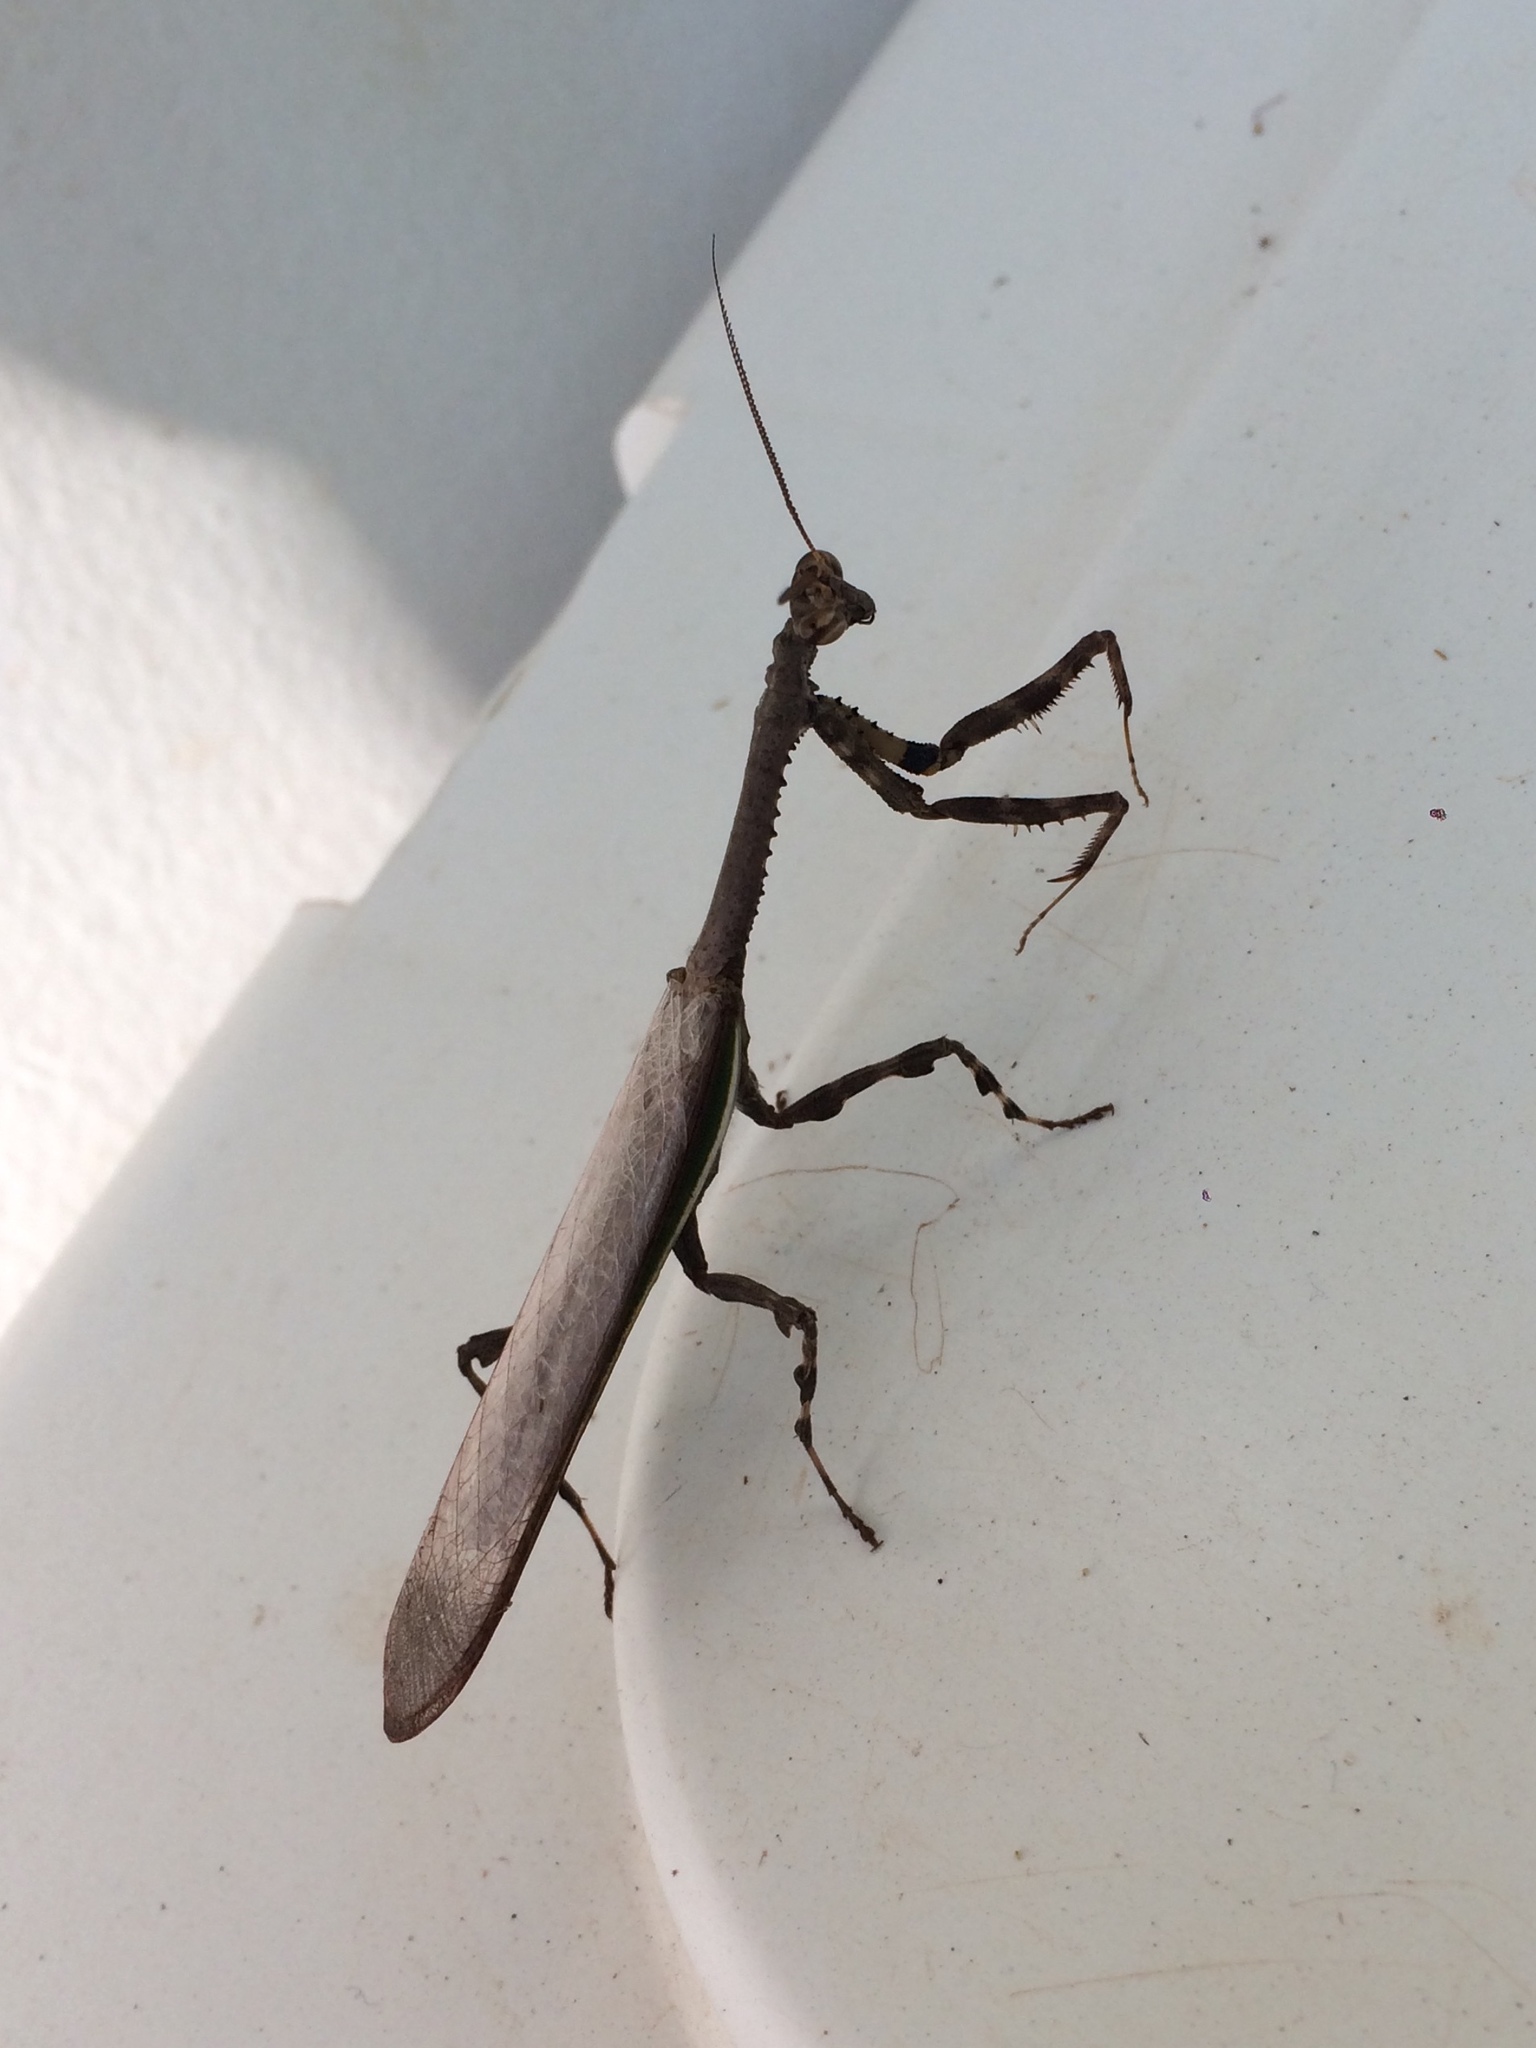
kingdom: Animalia
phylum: Arthropoda
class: Insecta
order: Mantodea
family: Mantidae
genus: Vates
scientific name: Vates
